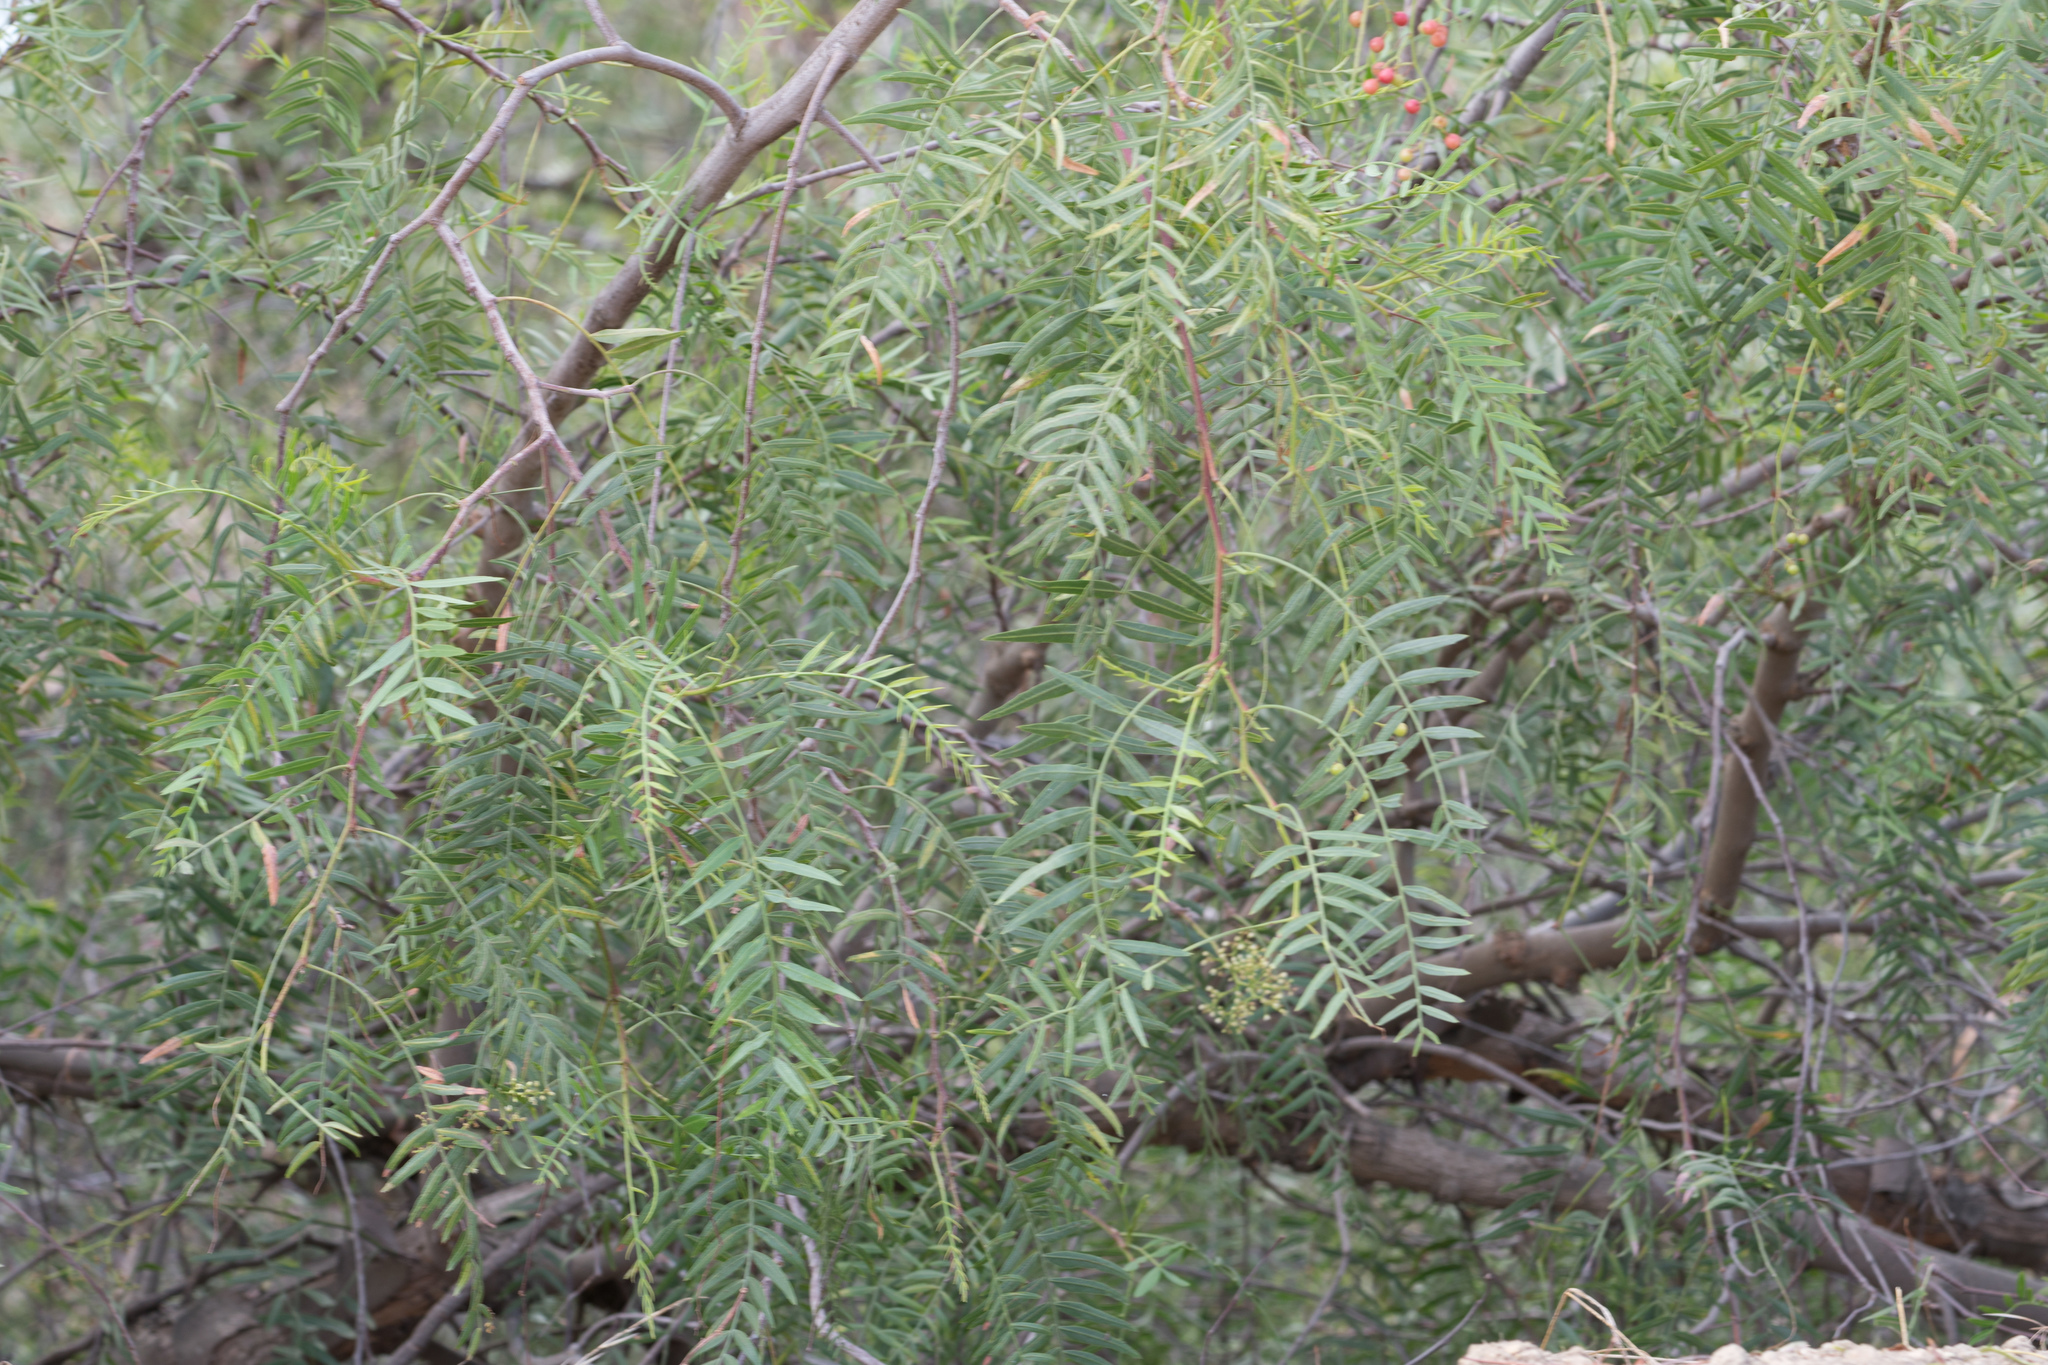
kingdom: Plantae
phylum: Tracheophyta
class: Magnoliopsida
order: Sapindales
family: Anacardiaceae
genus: Schinus
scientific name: Schinus molle
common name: Peruvian peppertree
